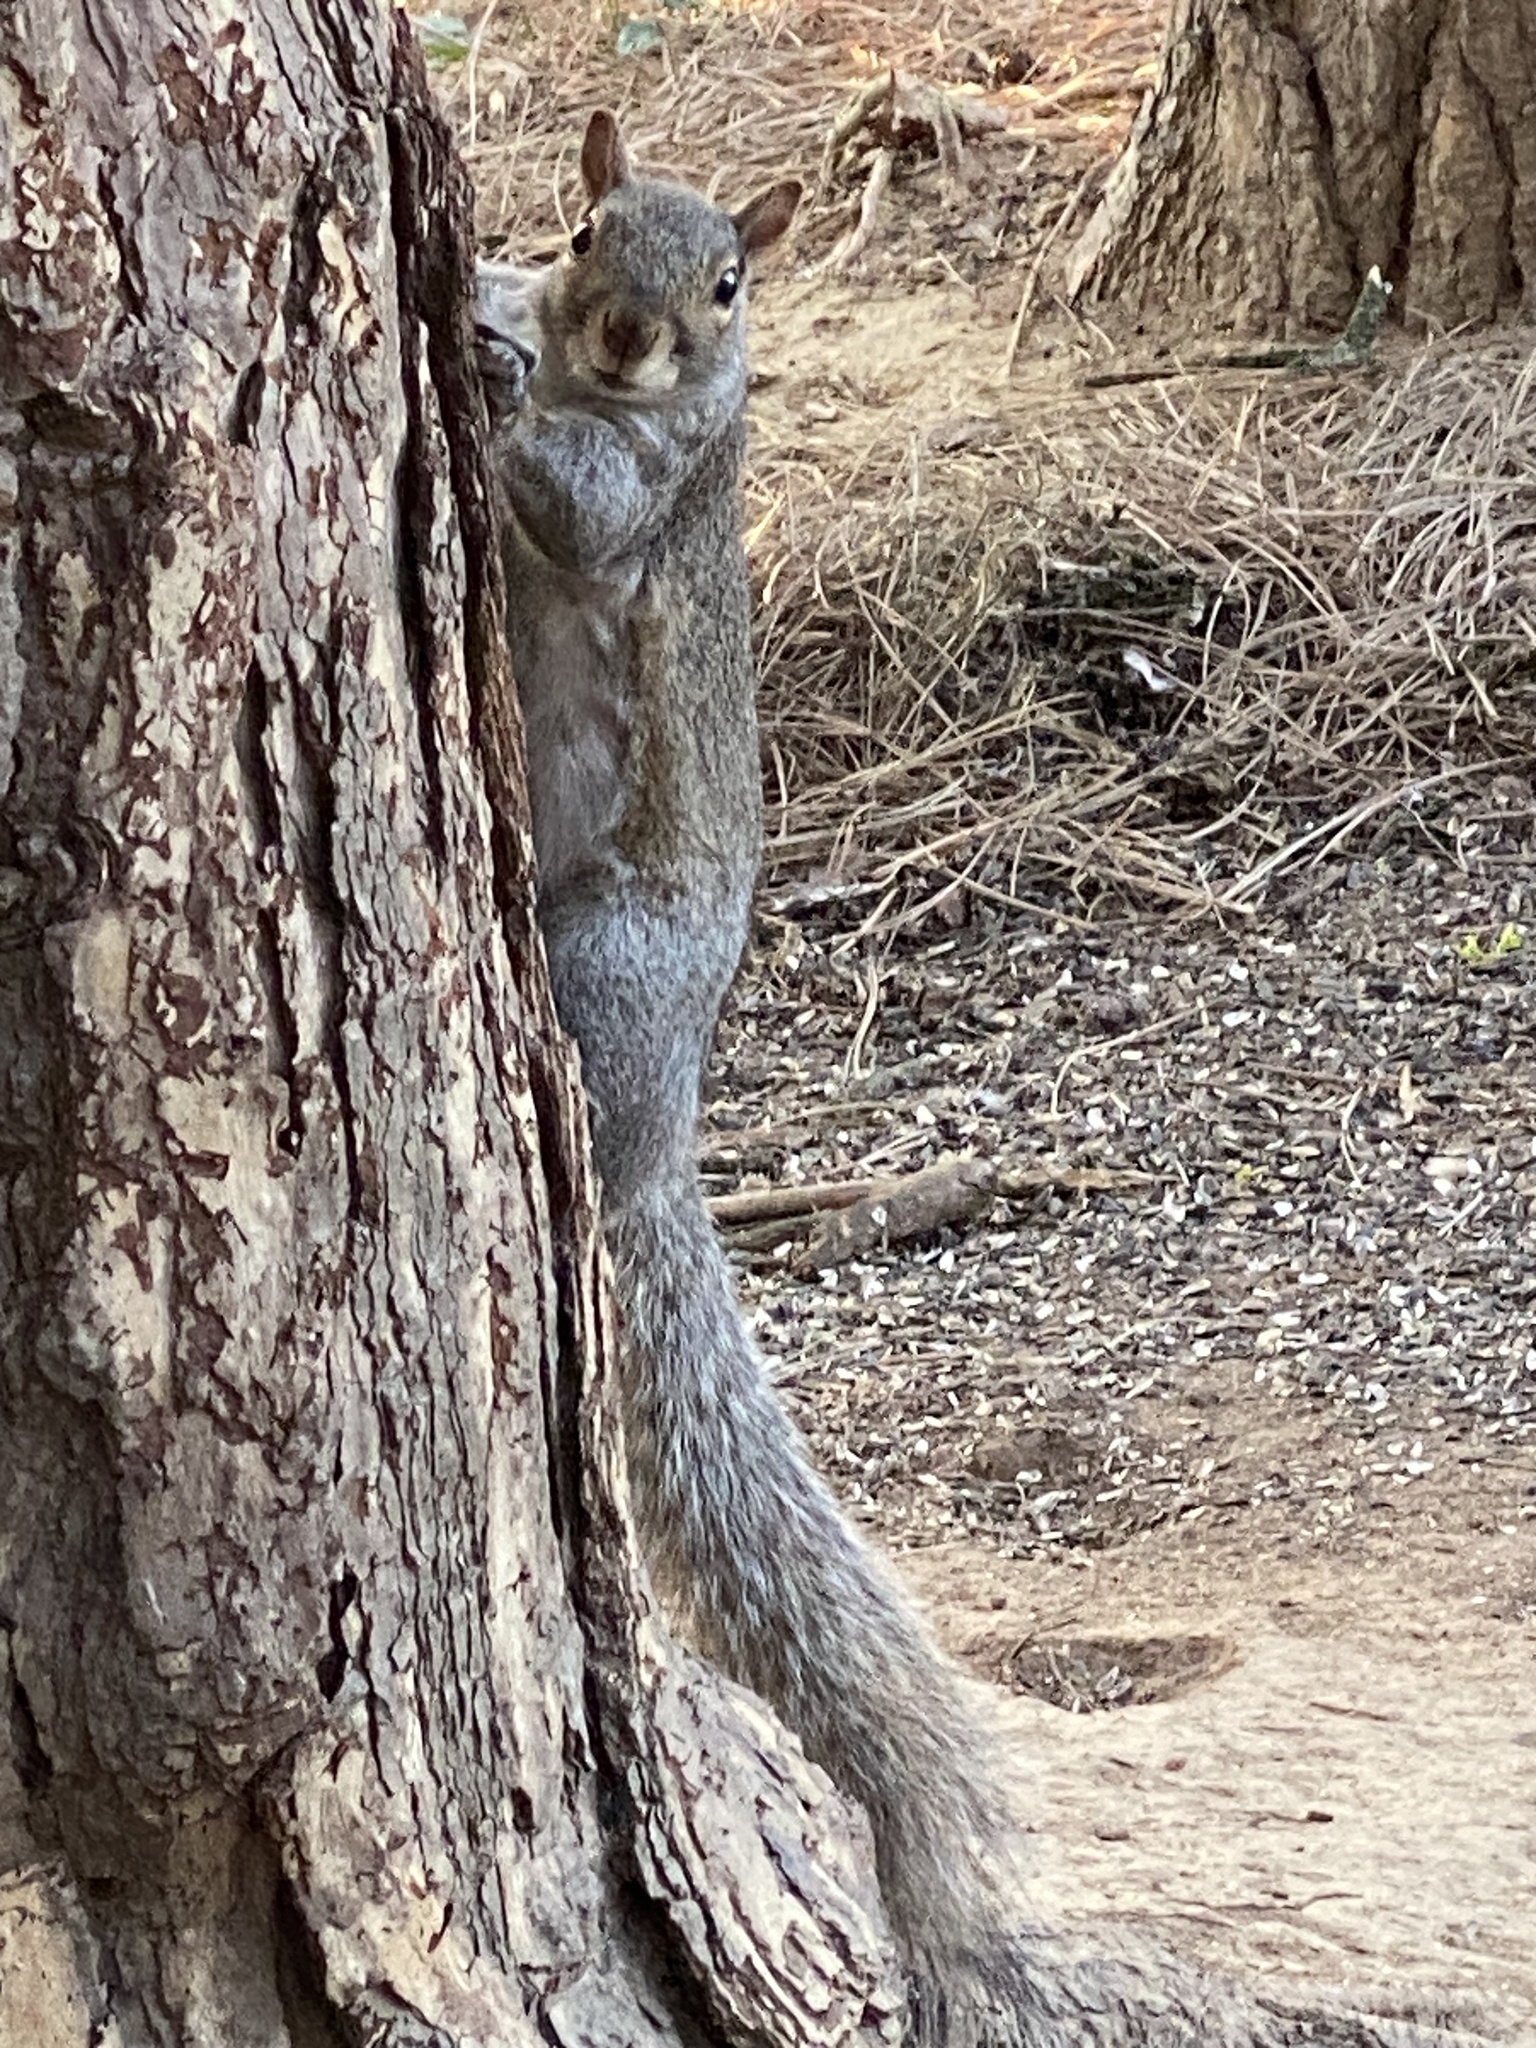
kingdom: Animalia
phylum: Chordata
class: Mammalia
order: Rodentia
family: Sciuridae
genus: Sciurus
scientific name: Sciurus carolinensis
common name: Eastern gray squirrel
